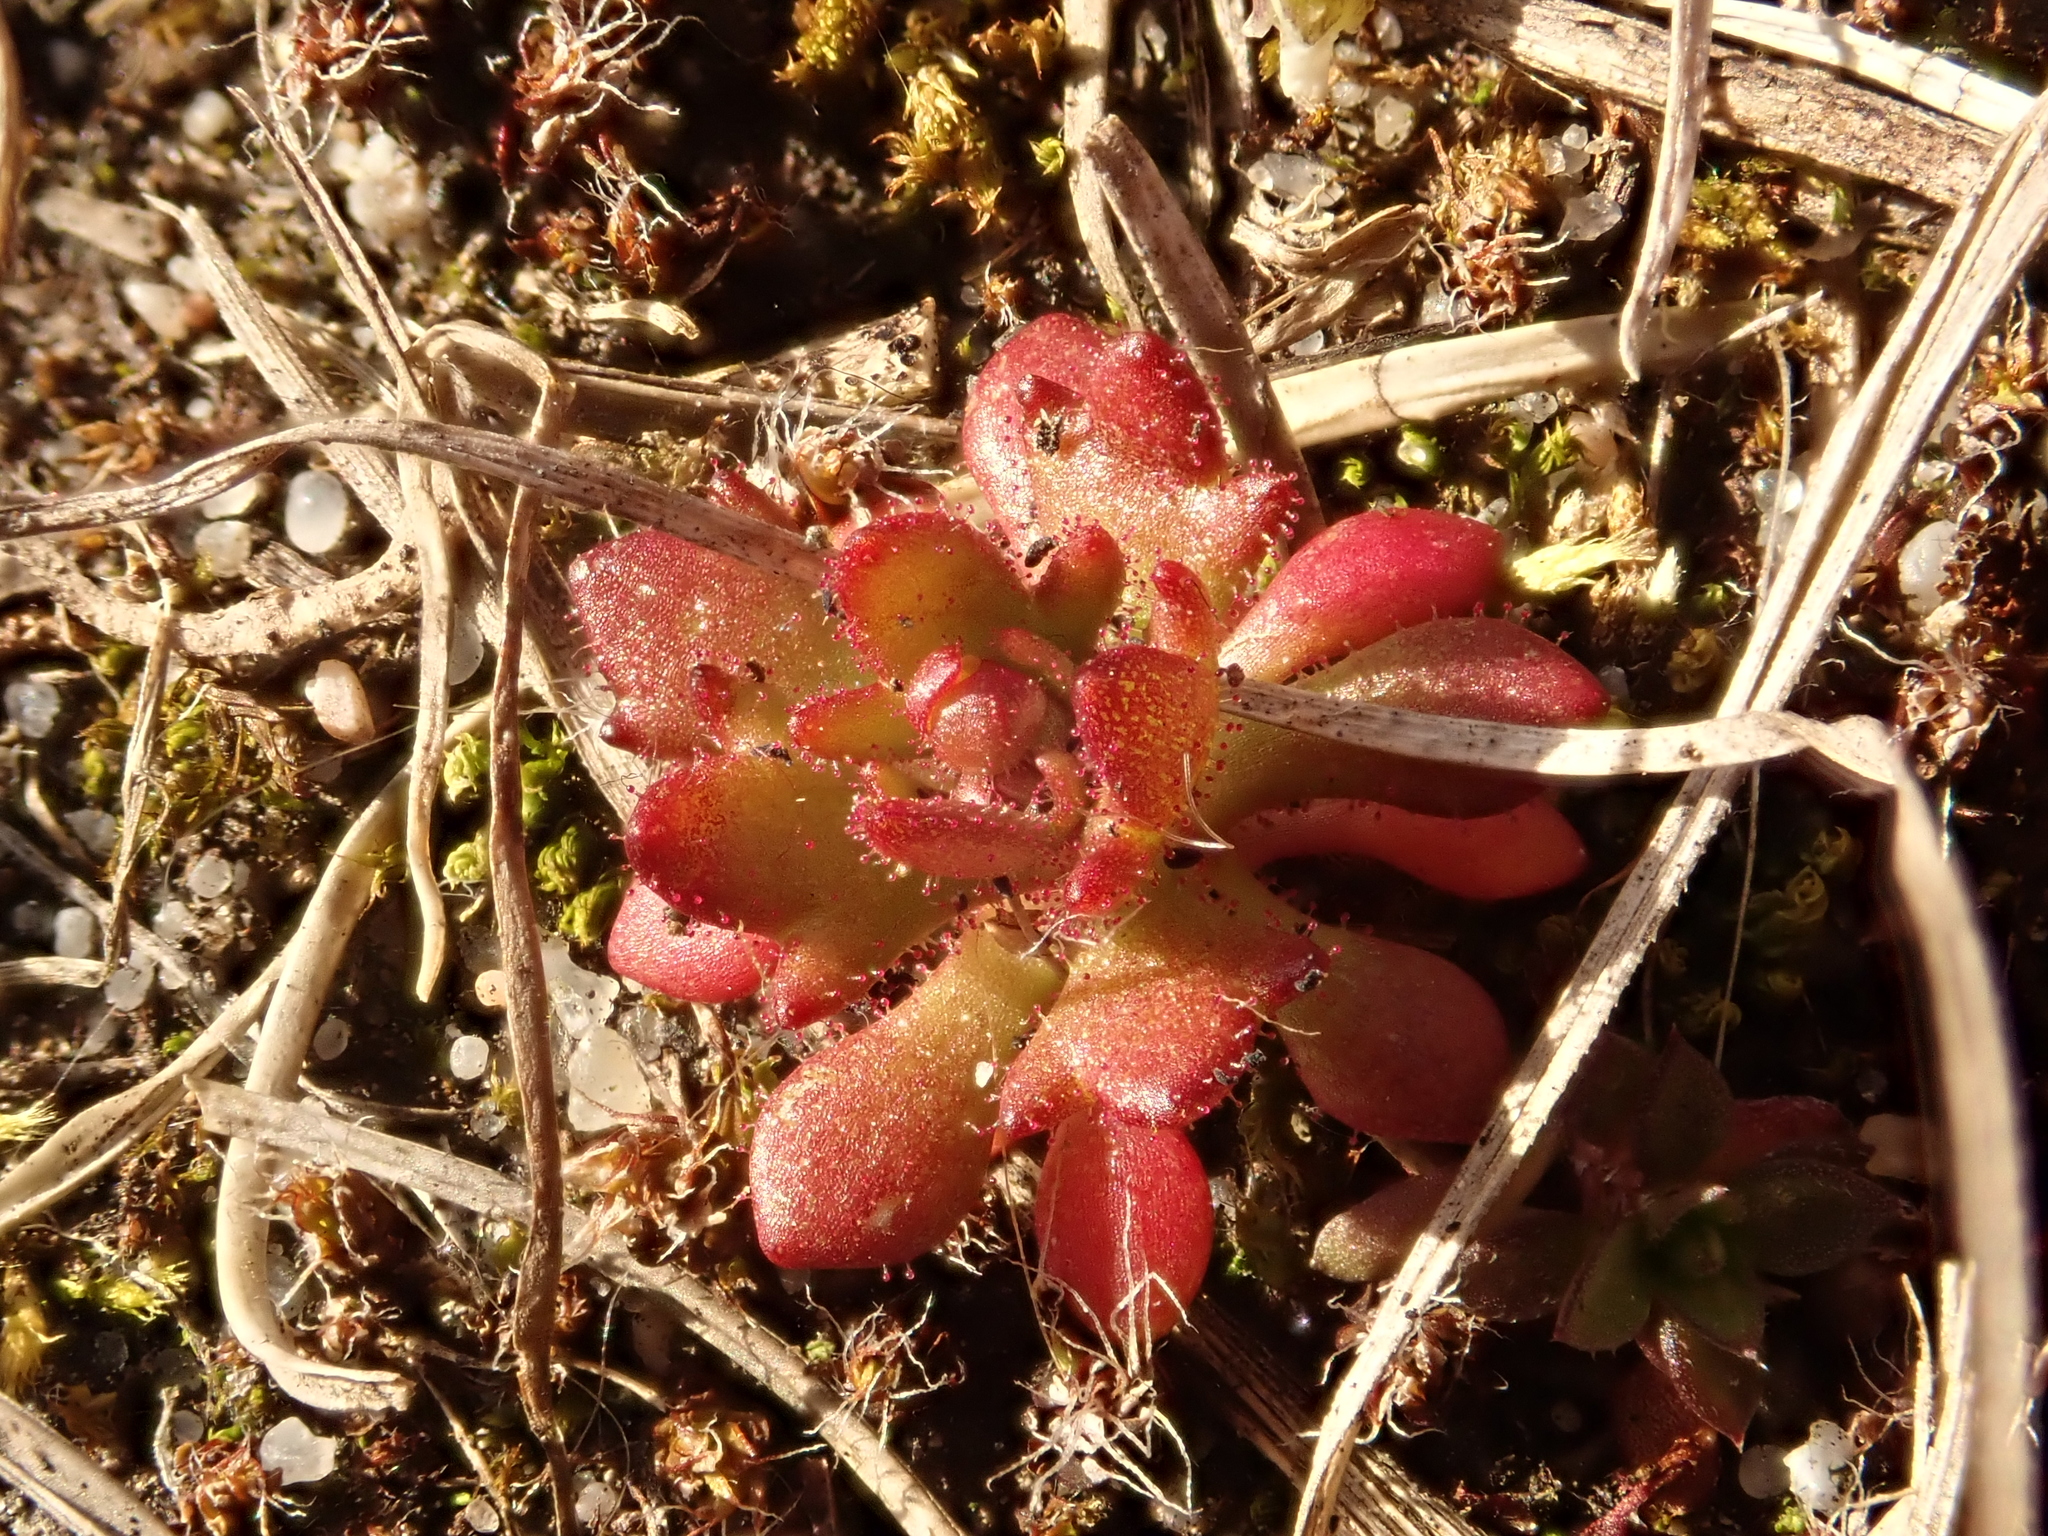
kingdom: Plantae
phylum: Tracheophyta
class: Magnoliopsida
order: Saxifragales
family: Saxifragaceae
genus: Saxifraga
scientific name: Saxifraga tridactylites
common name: Rue-leaved saxifrage
